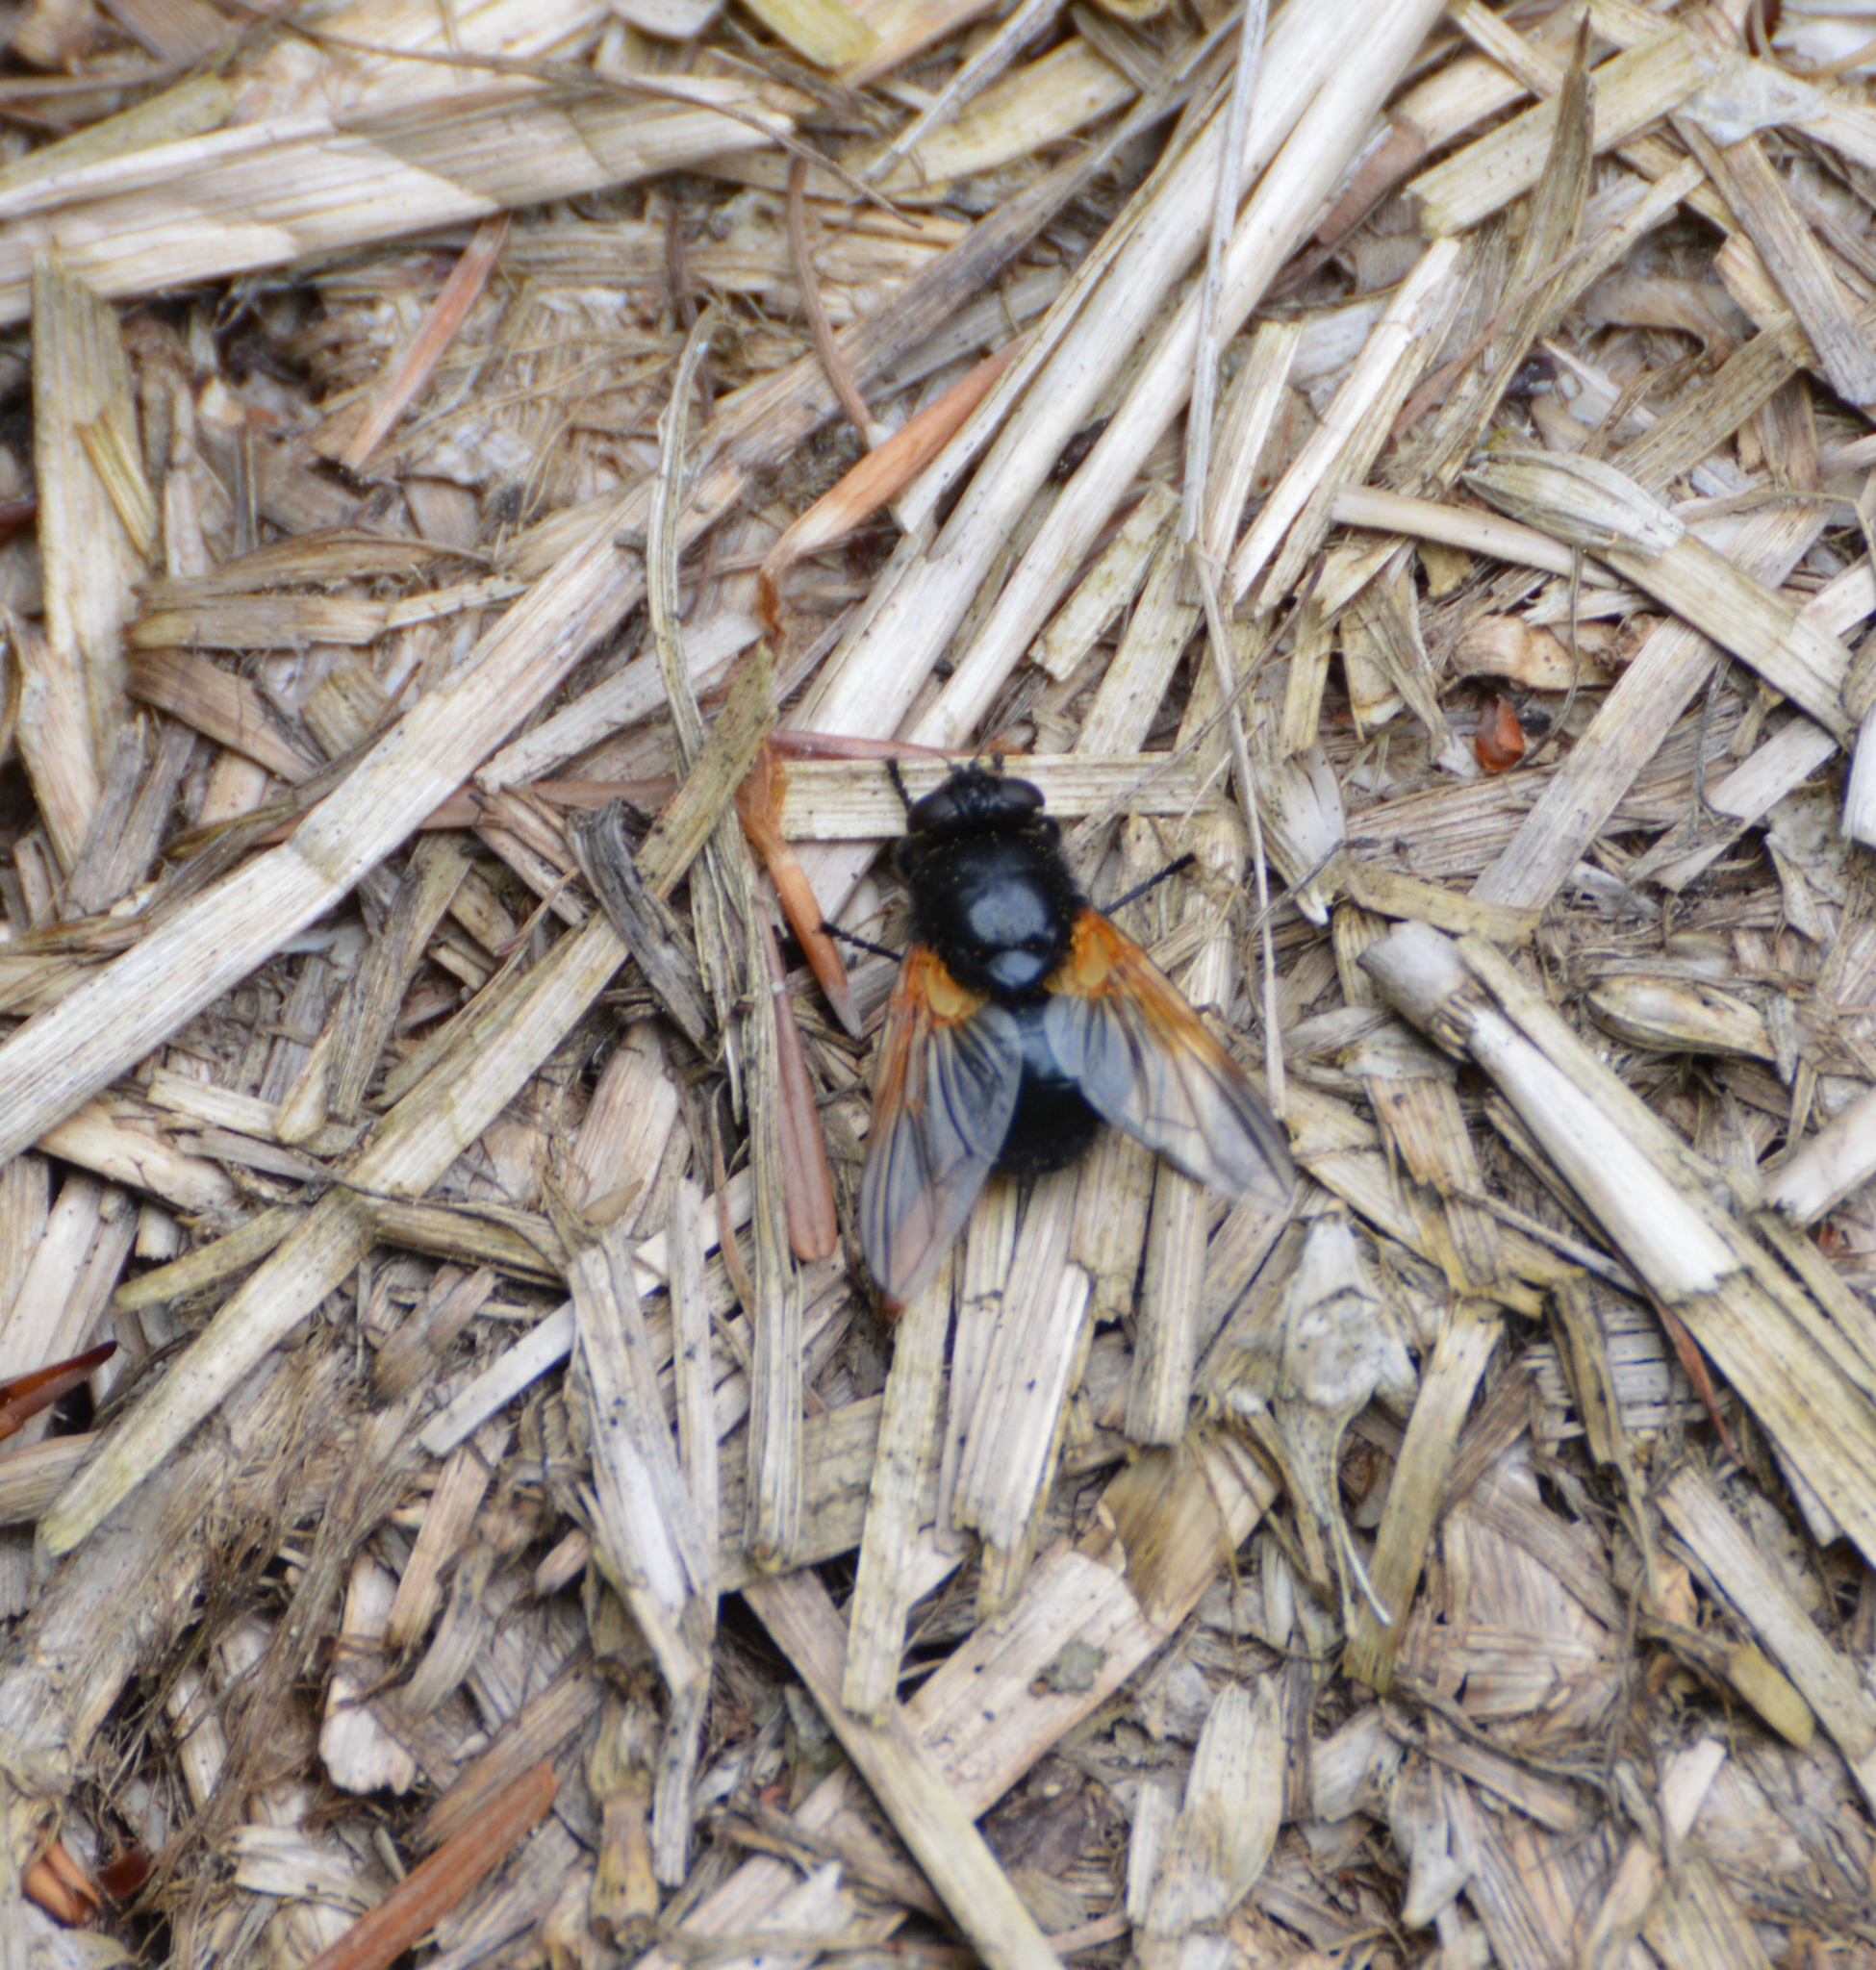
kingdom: Animalia
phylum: Arthropoda
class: Insecta
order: Diptera
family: Muscidae
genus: Mesembrina
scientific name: Mesembrina meridiana
